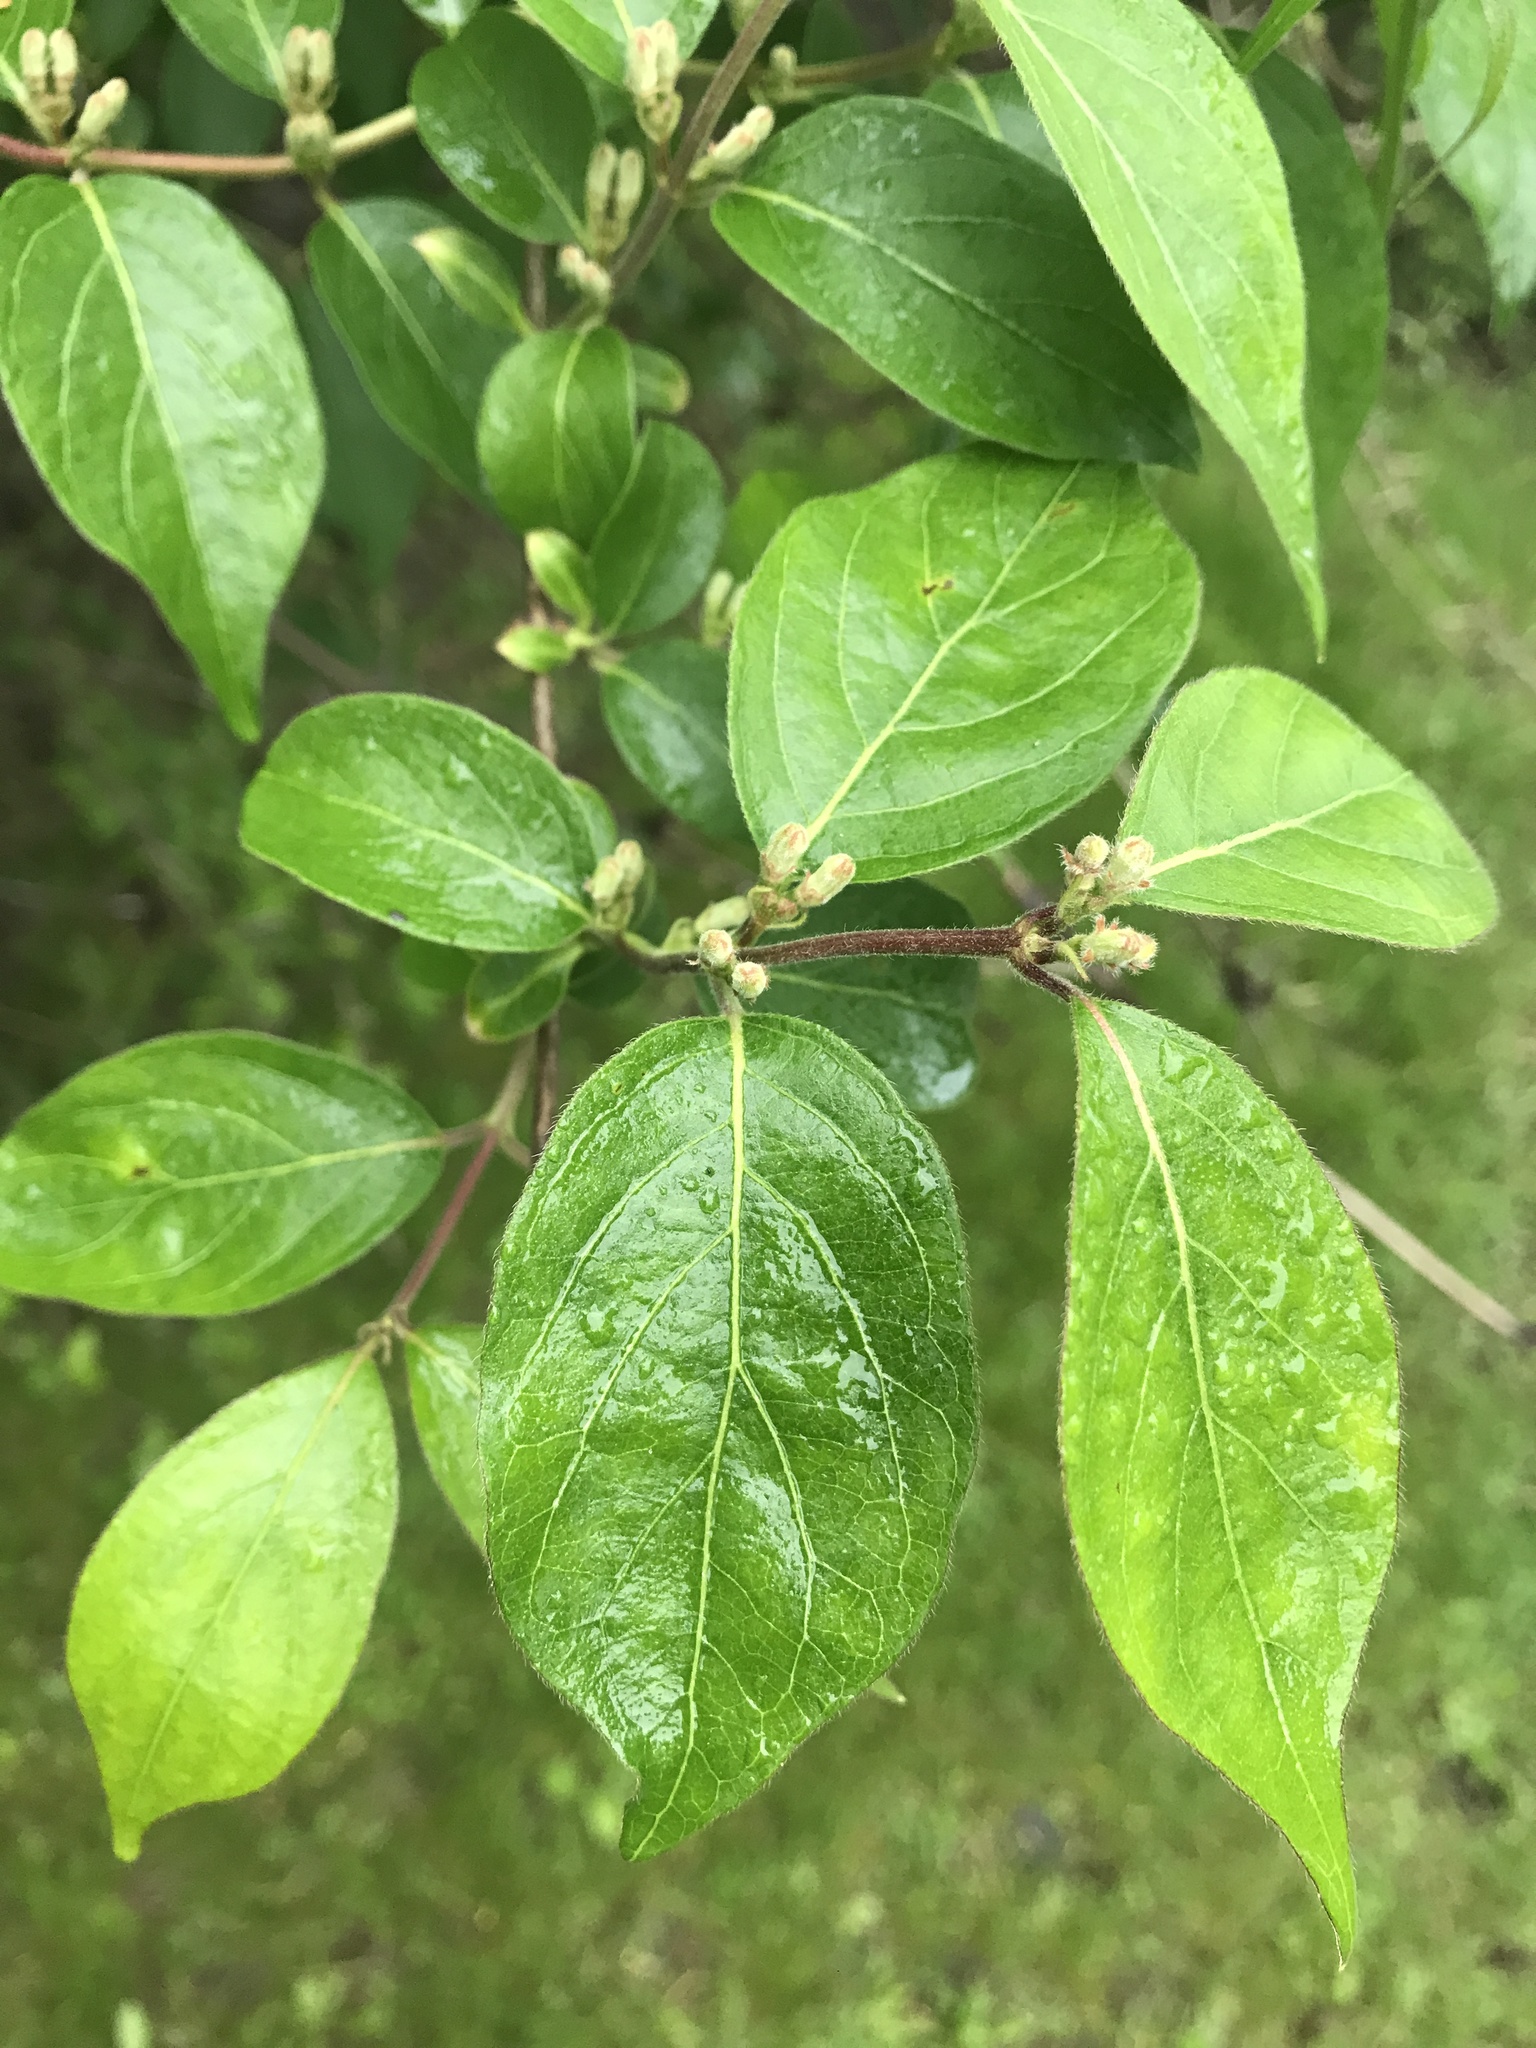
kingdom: Plantae
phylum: Tracheophyta
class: Magnoliopsida
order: Dipsacales
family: Caprifoliaceae
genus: Lonicera
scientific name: Lonicera maackii
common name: Amur honeysuckle
